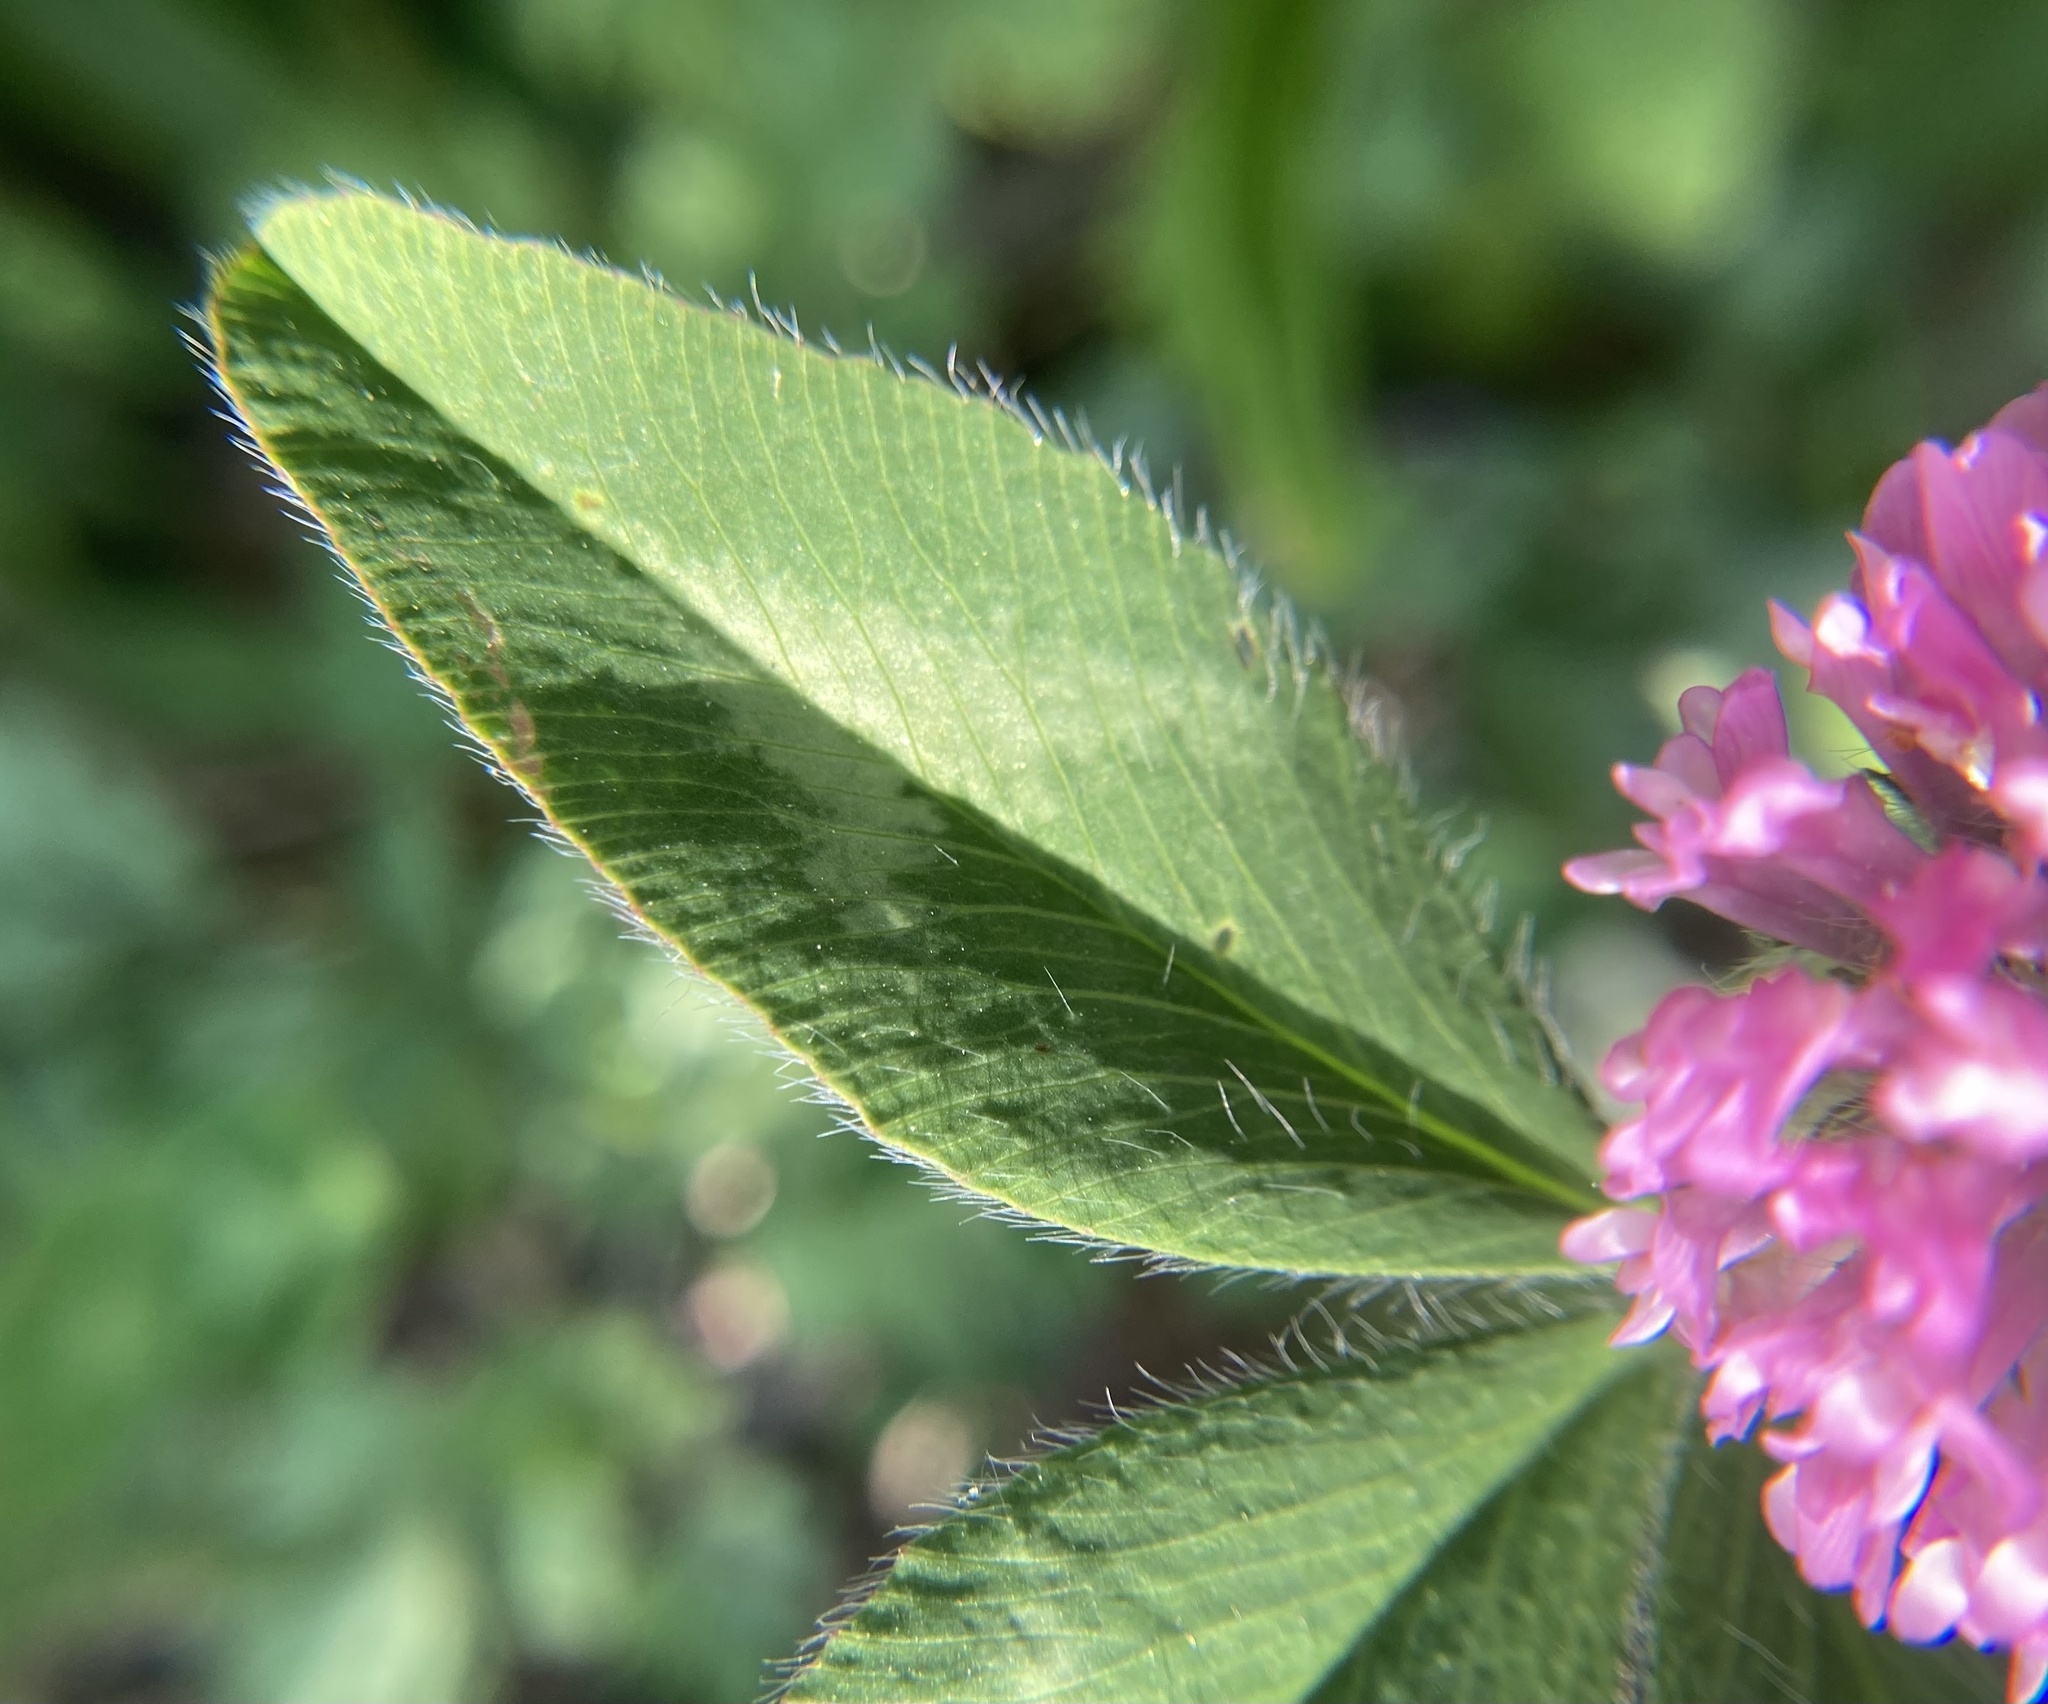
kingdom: Plantae
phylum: Tracheophyta
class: Magnoliopsida
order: Fabales
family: Fabaceae
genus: Trifolium
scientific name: Trifolium pratense
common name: Red clover
